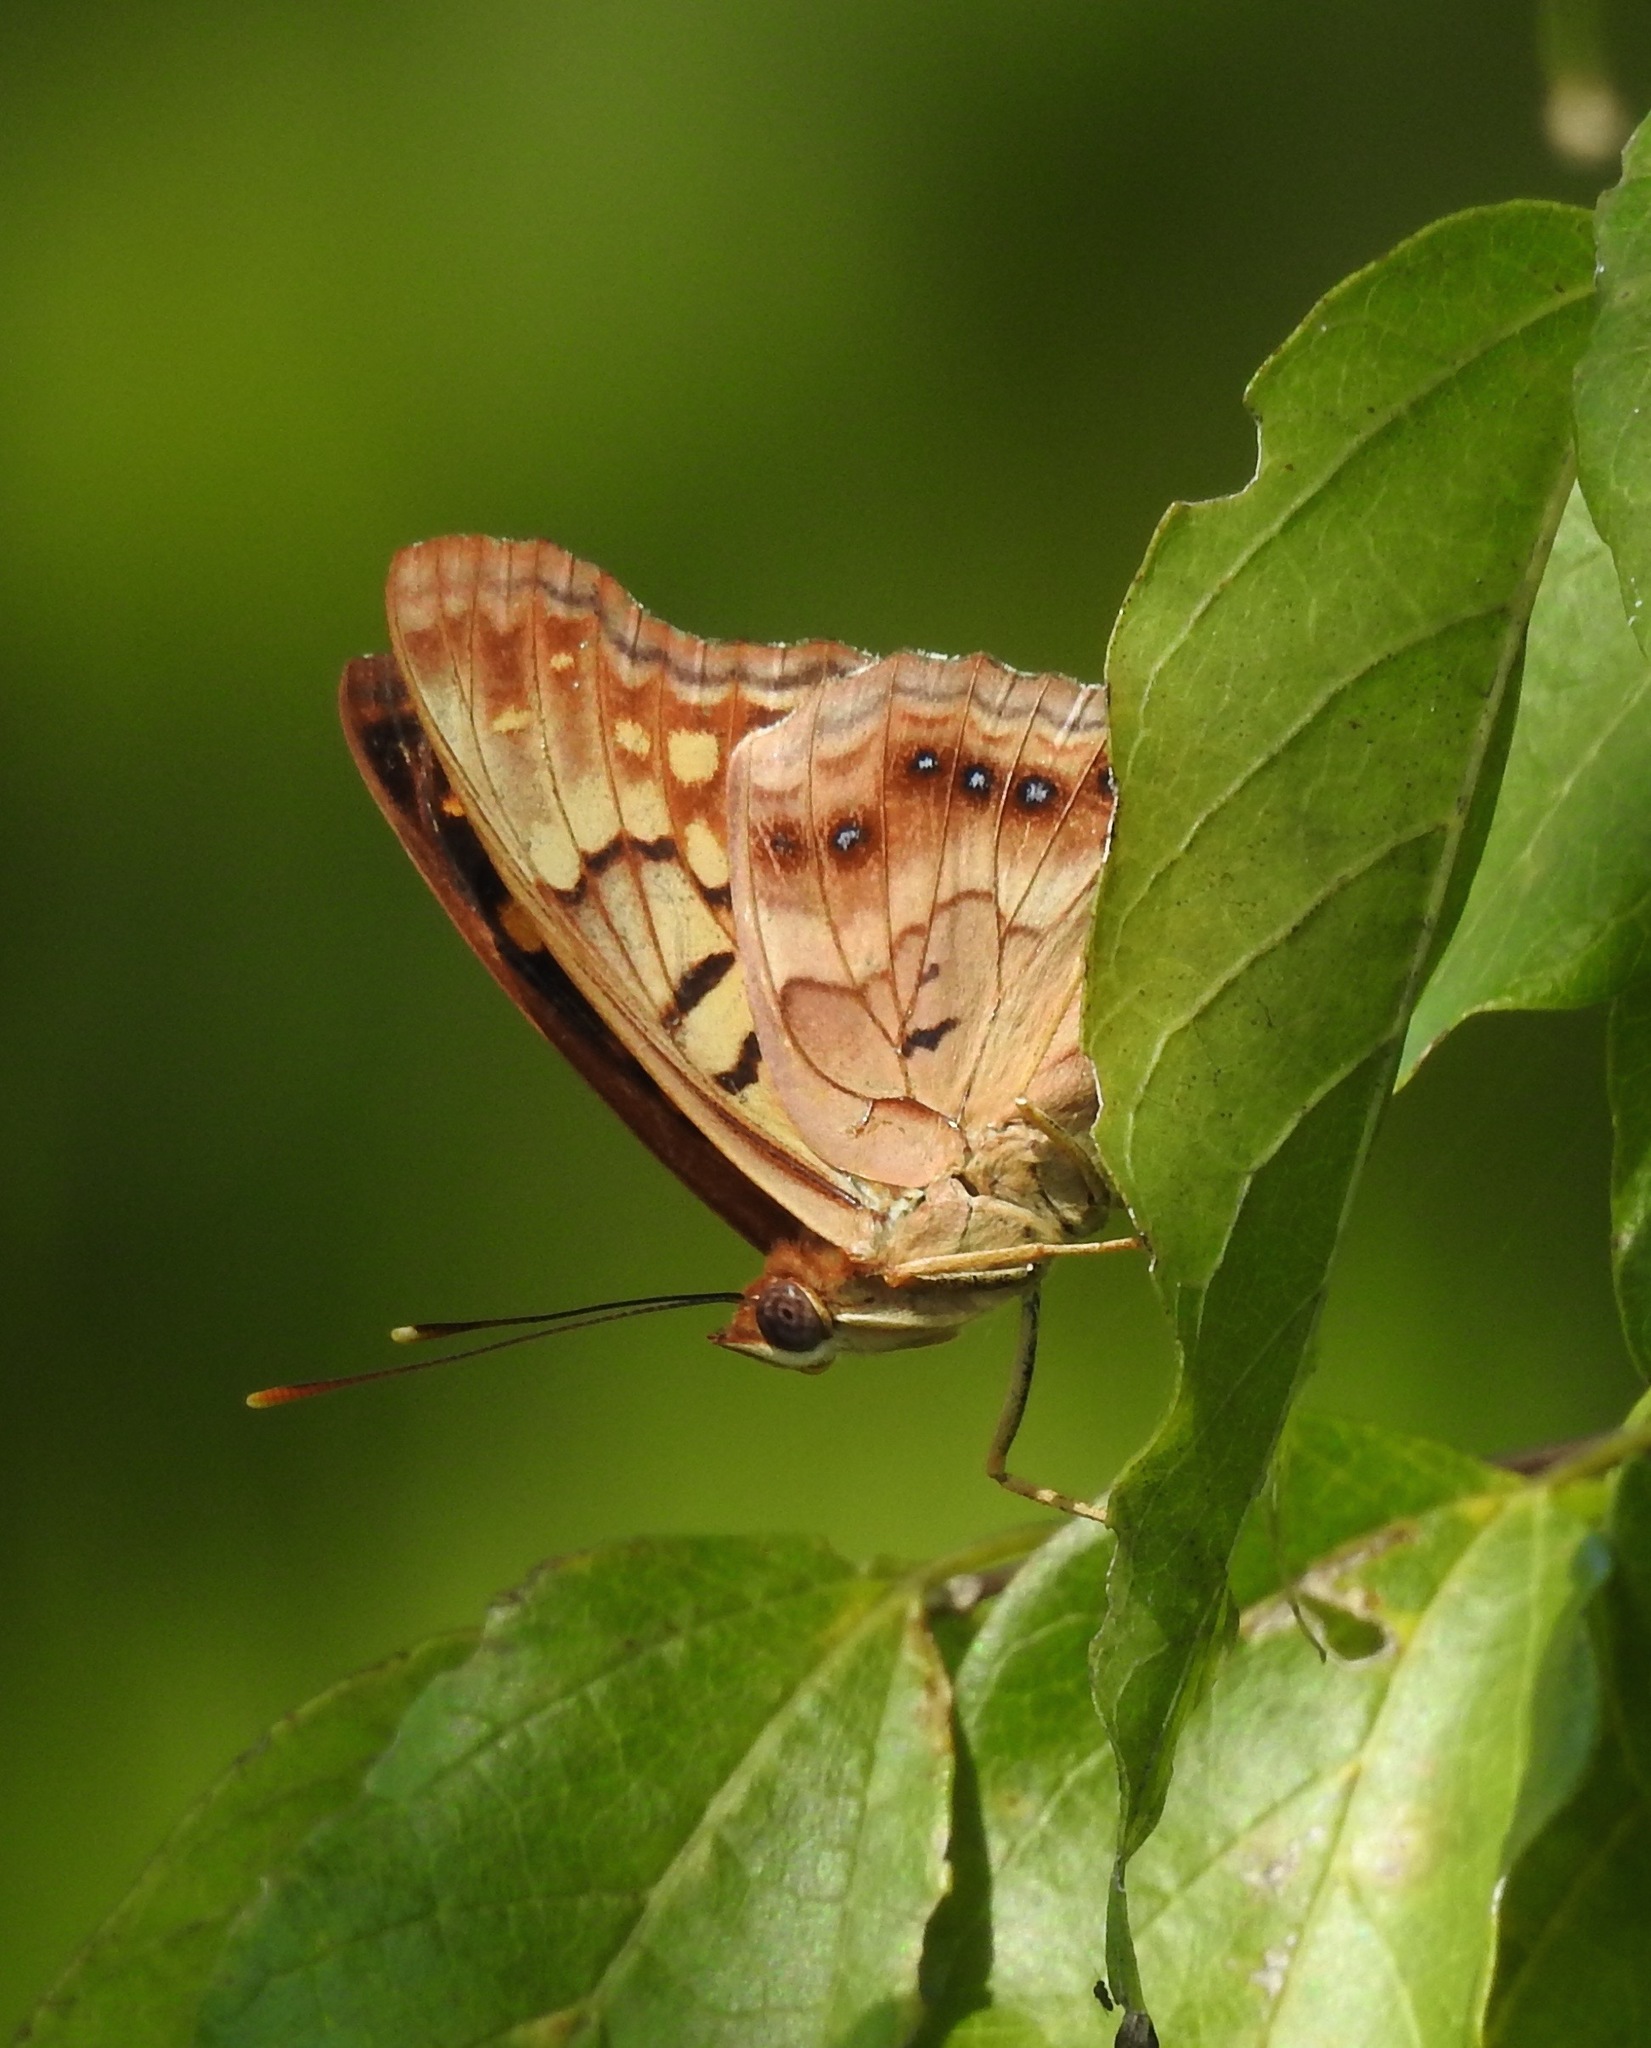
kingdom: Animalia
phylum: Arthropoda
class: Insecta
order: Lepidoptera
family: Nymphalidae
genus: Asterocampa
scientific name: Asterocampa clyton
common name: Tawny emperor
